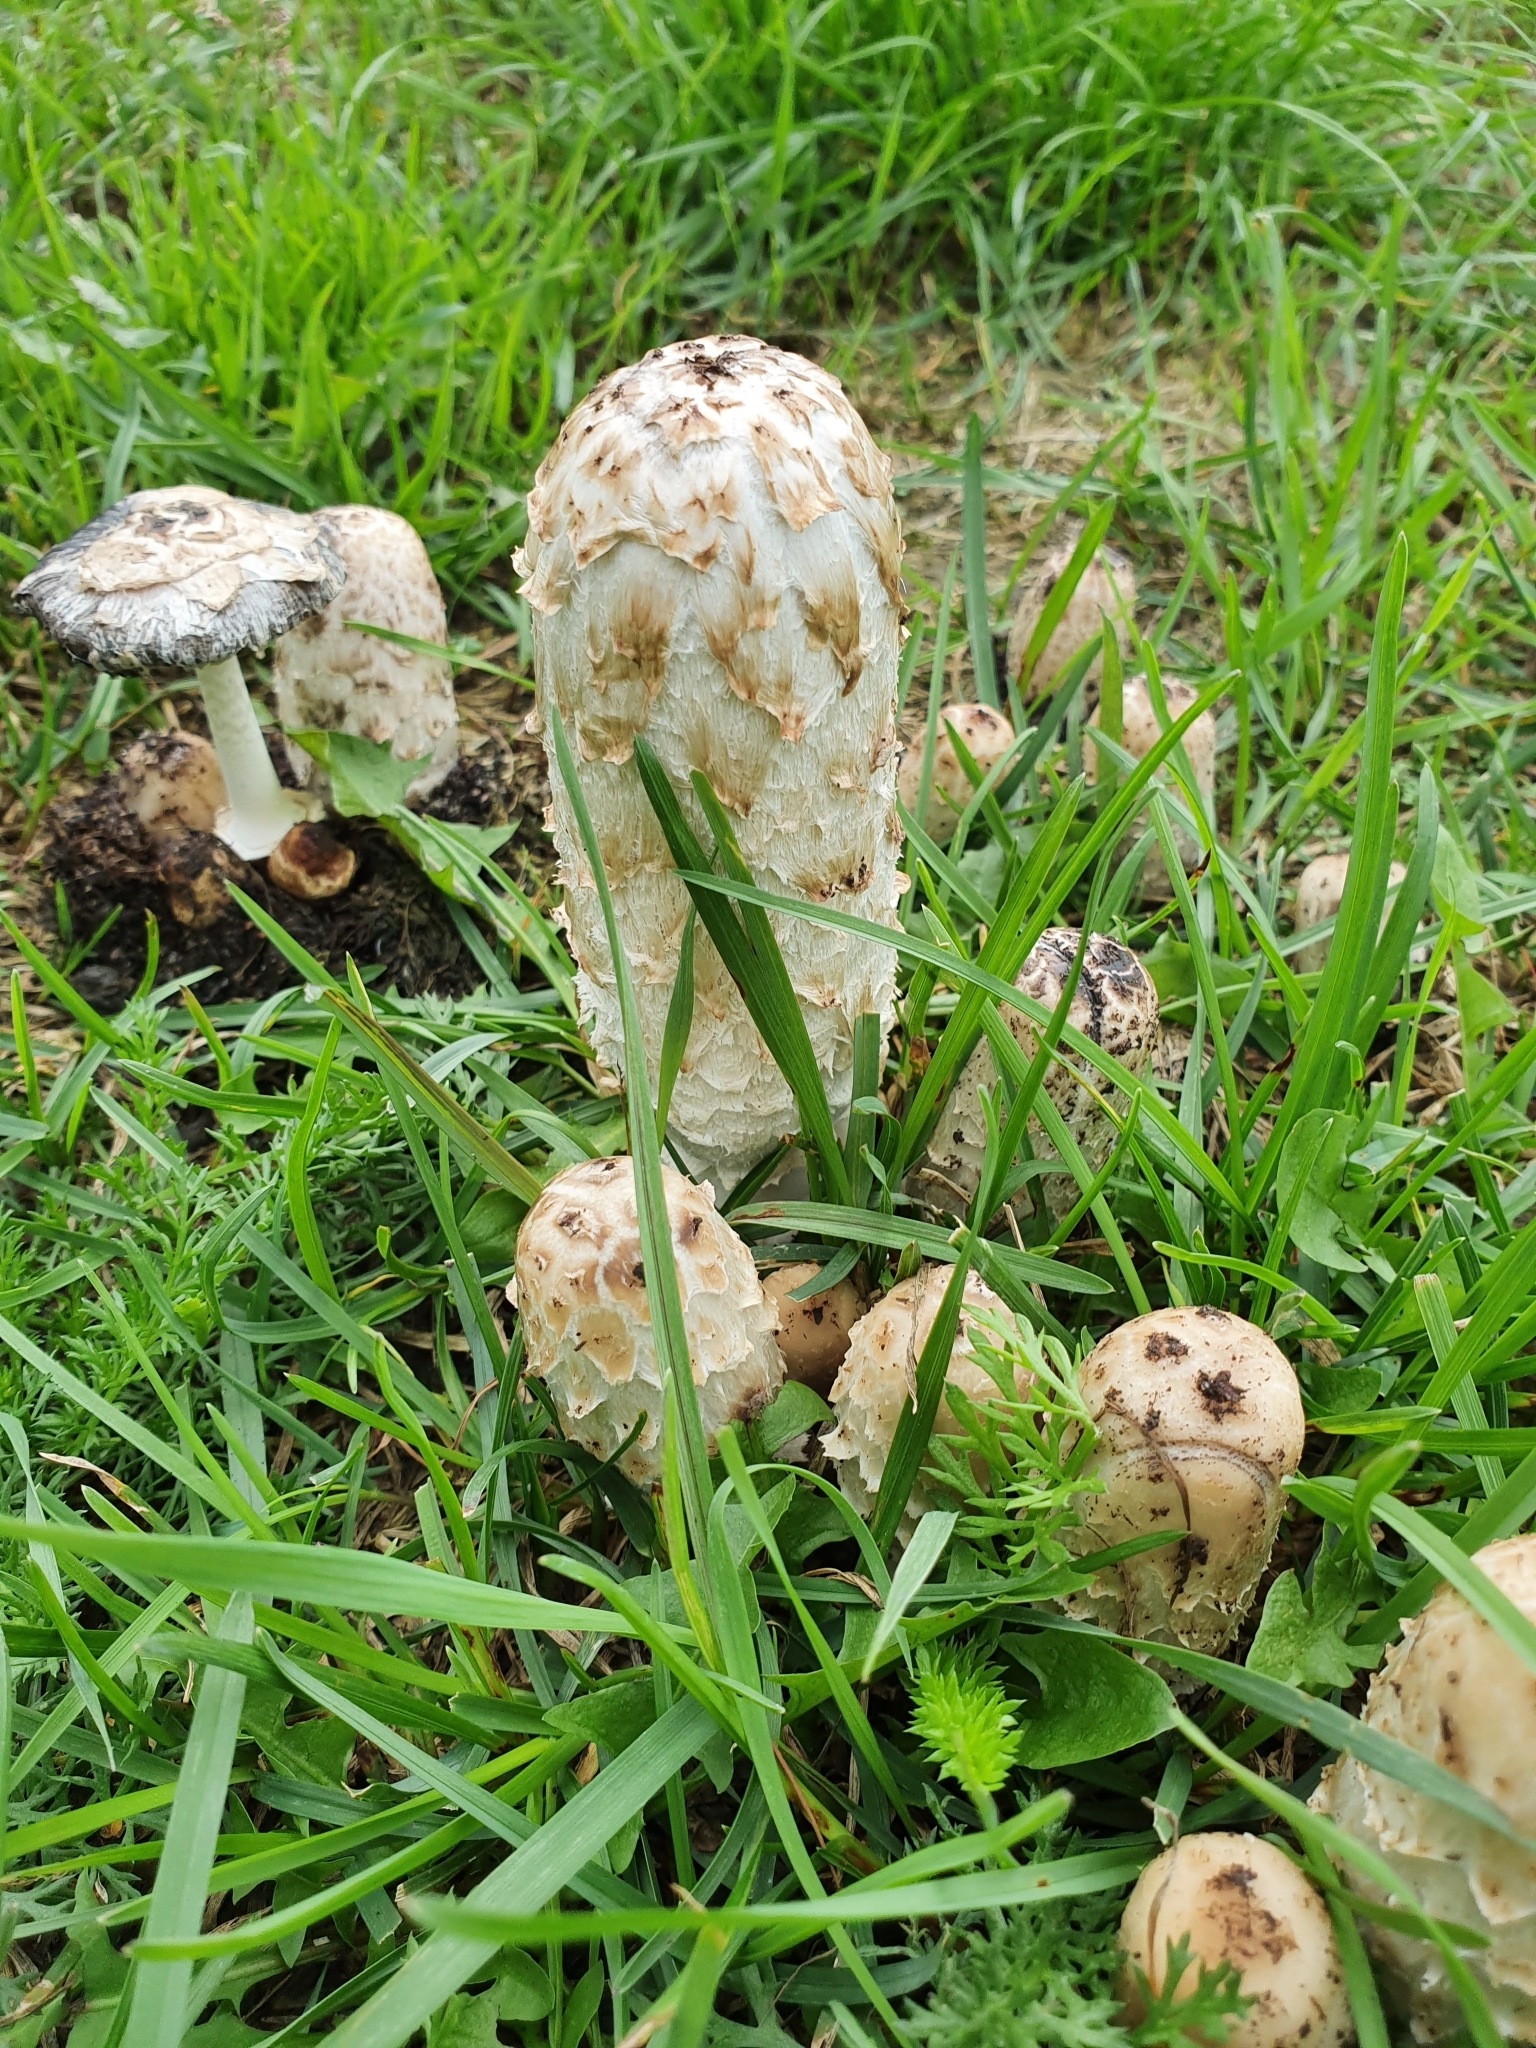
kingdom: Fungi
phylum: Basidiomycota
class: Agaricomycetes
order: Agaricales
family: Agaricaceae
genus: Coprinus
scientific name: Coprinus comatus
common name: Lawyer's wig
